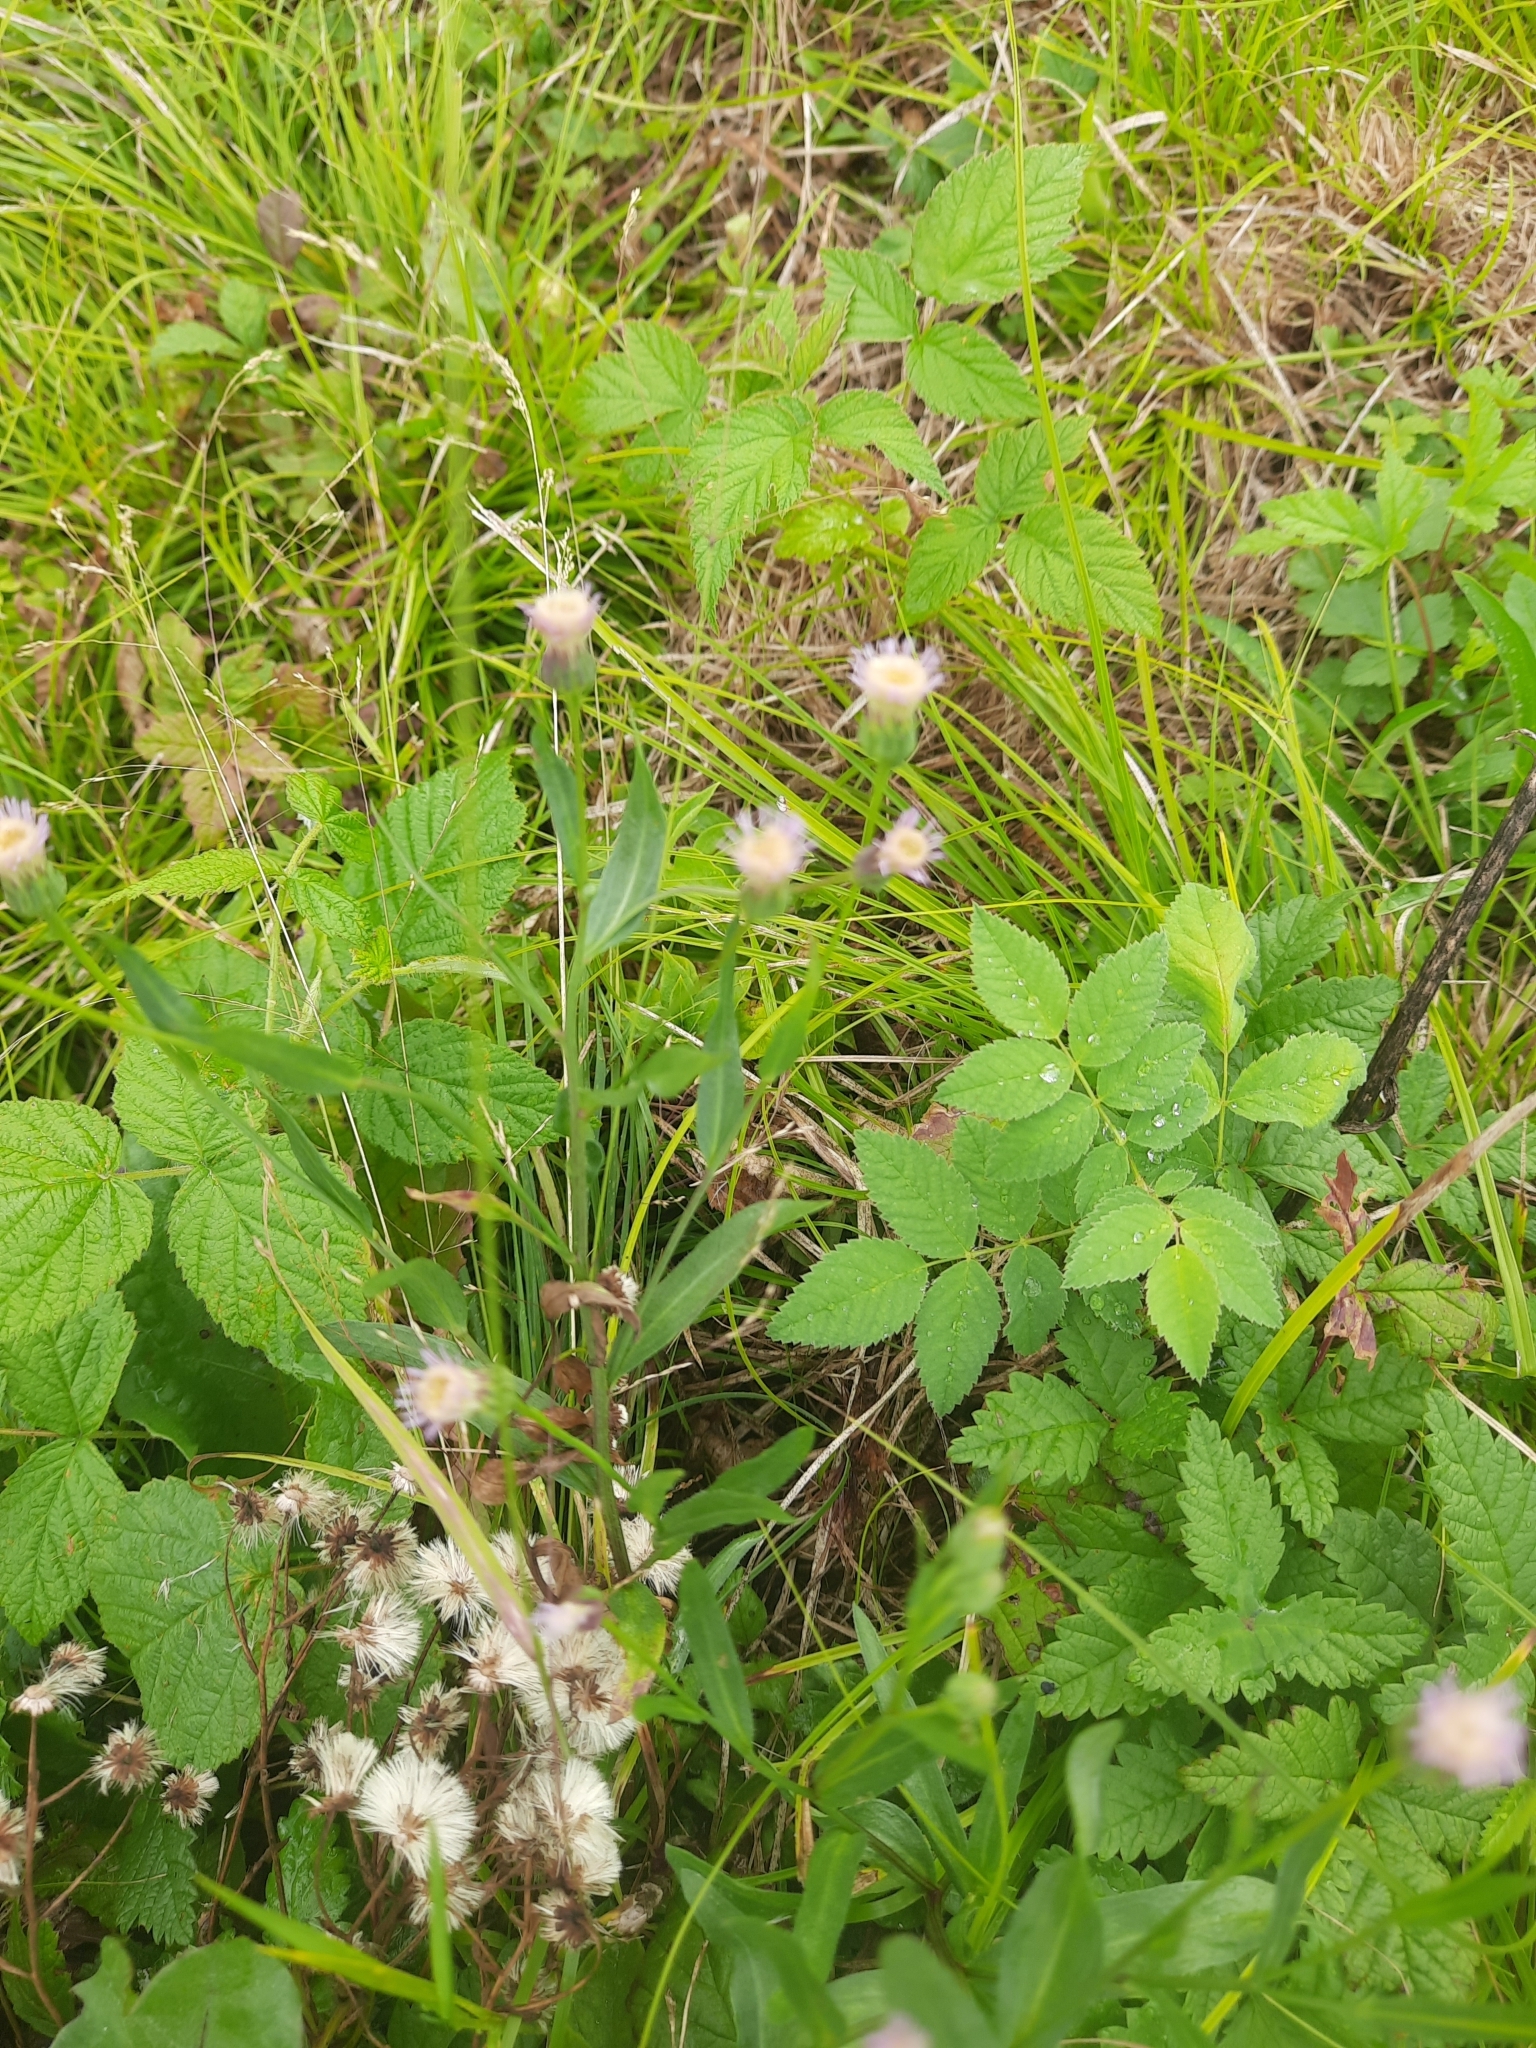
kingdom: Plantae
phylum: Tracheophyta
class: Magnoliopsida
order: Asterales
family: Asteraceae
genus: Erigeron
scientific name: Erigeron acris
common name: Blue fleabane
